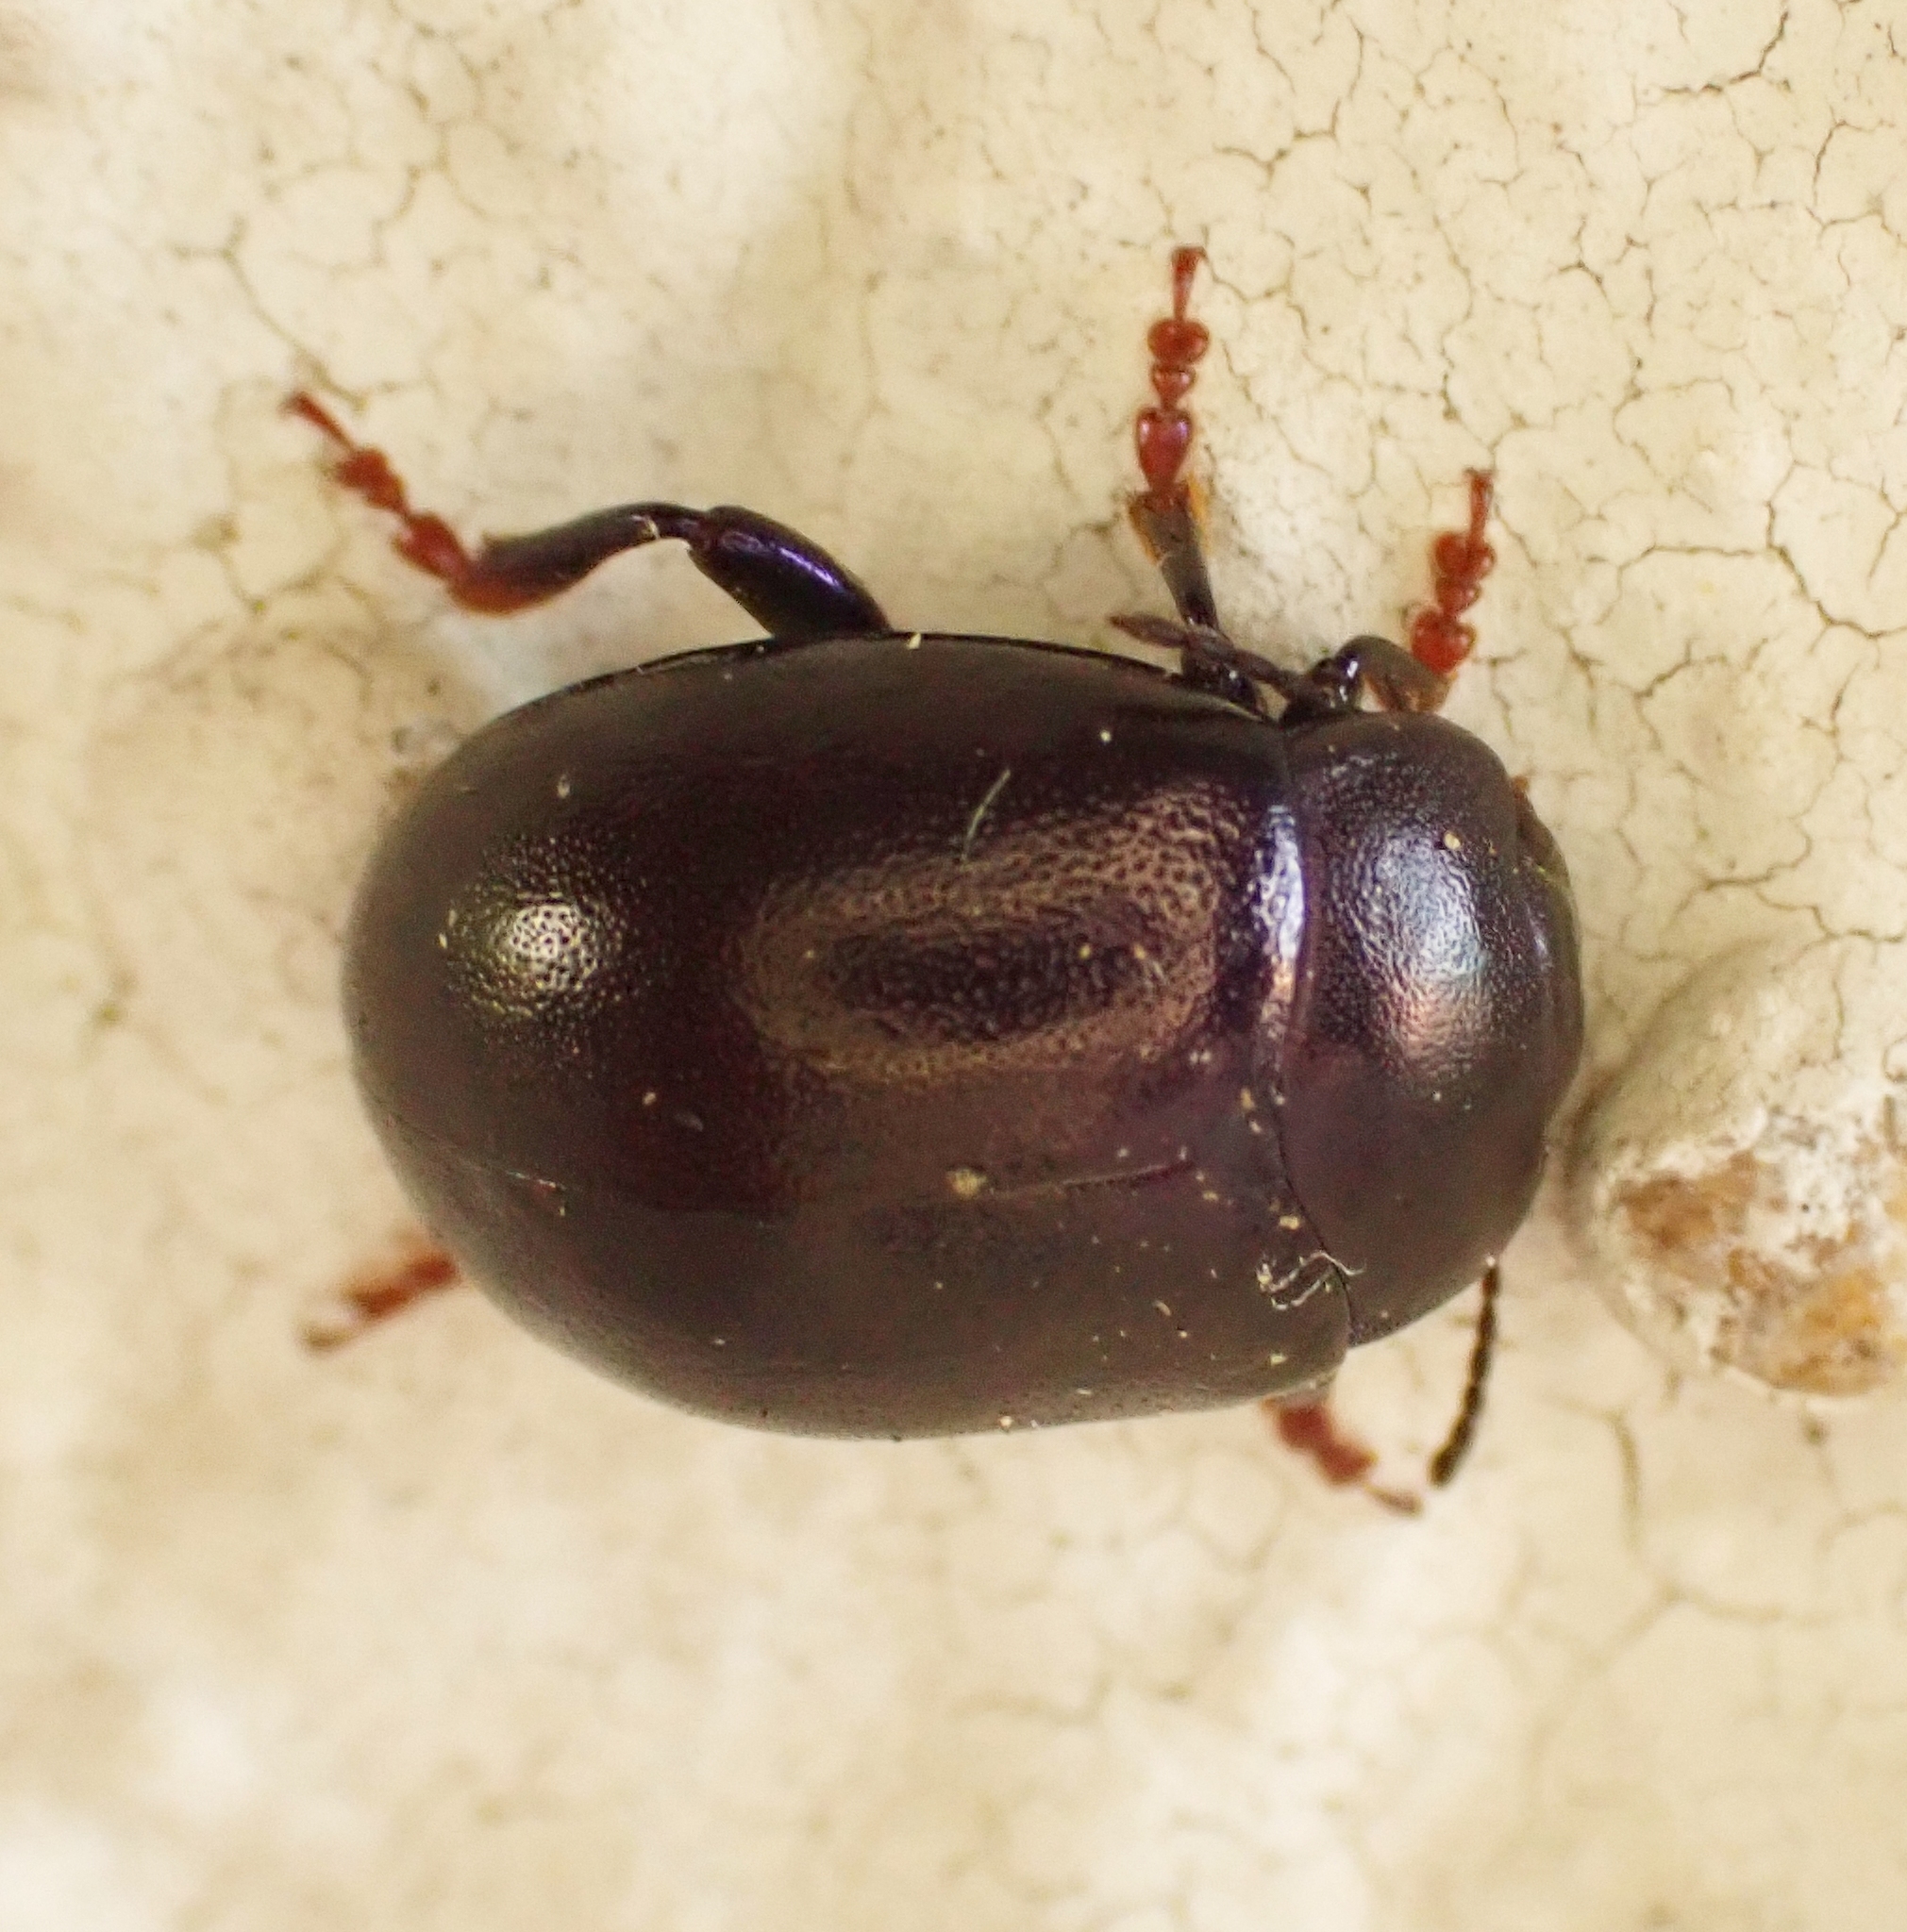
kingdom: Animalia
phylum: Arthropoda
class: Insecta
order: Coleoptera
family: Chrysomelidae
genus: Chrysolina
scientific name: Chrysolina sturmi
